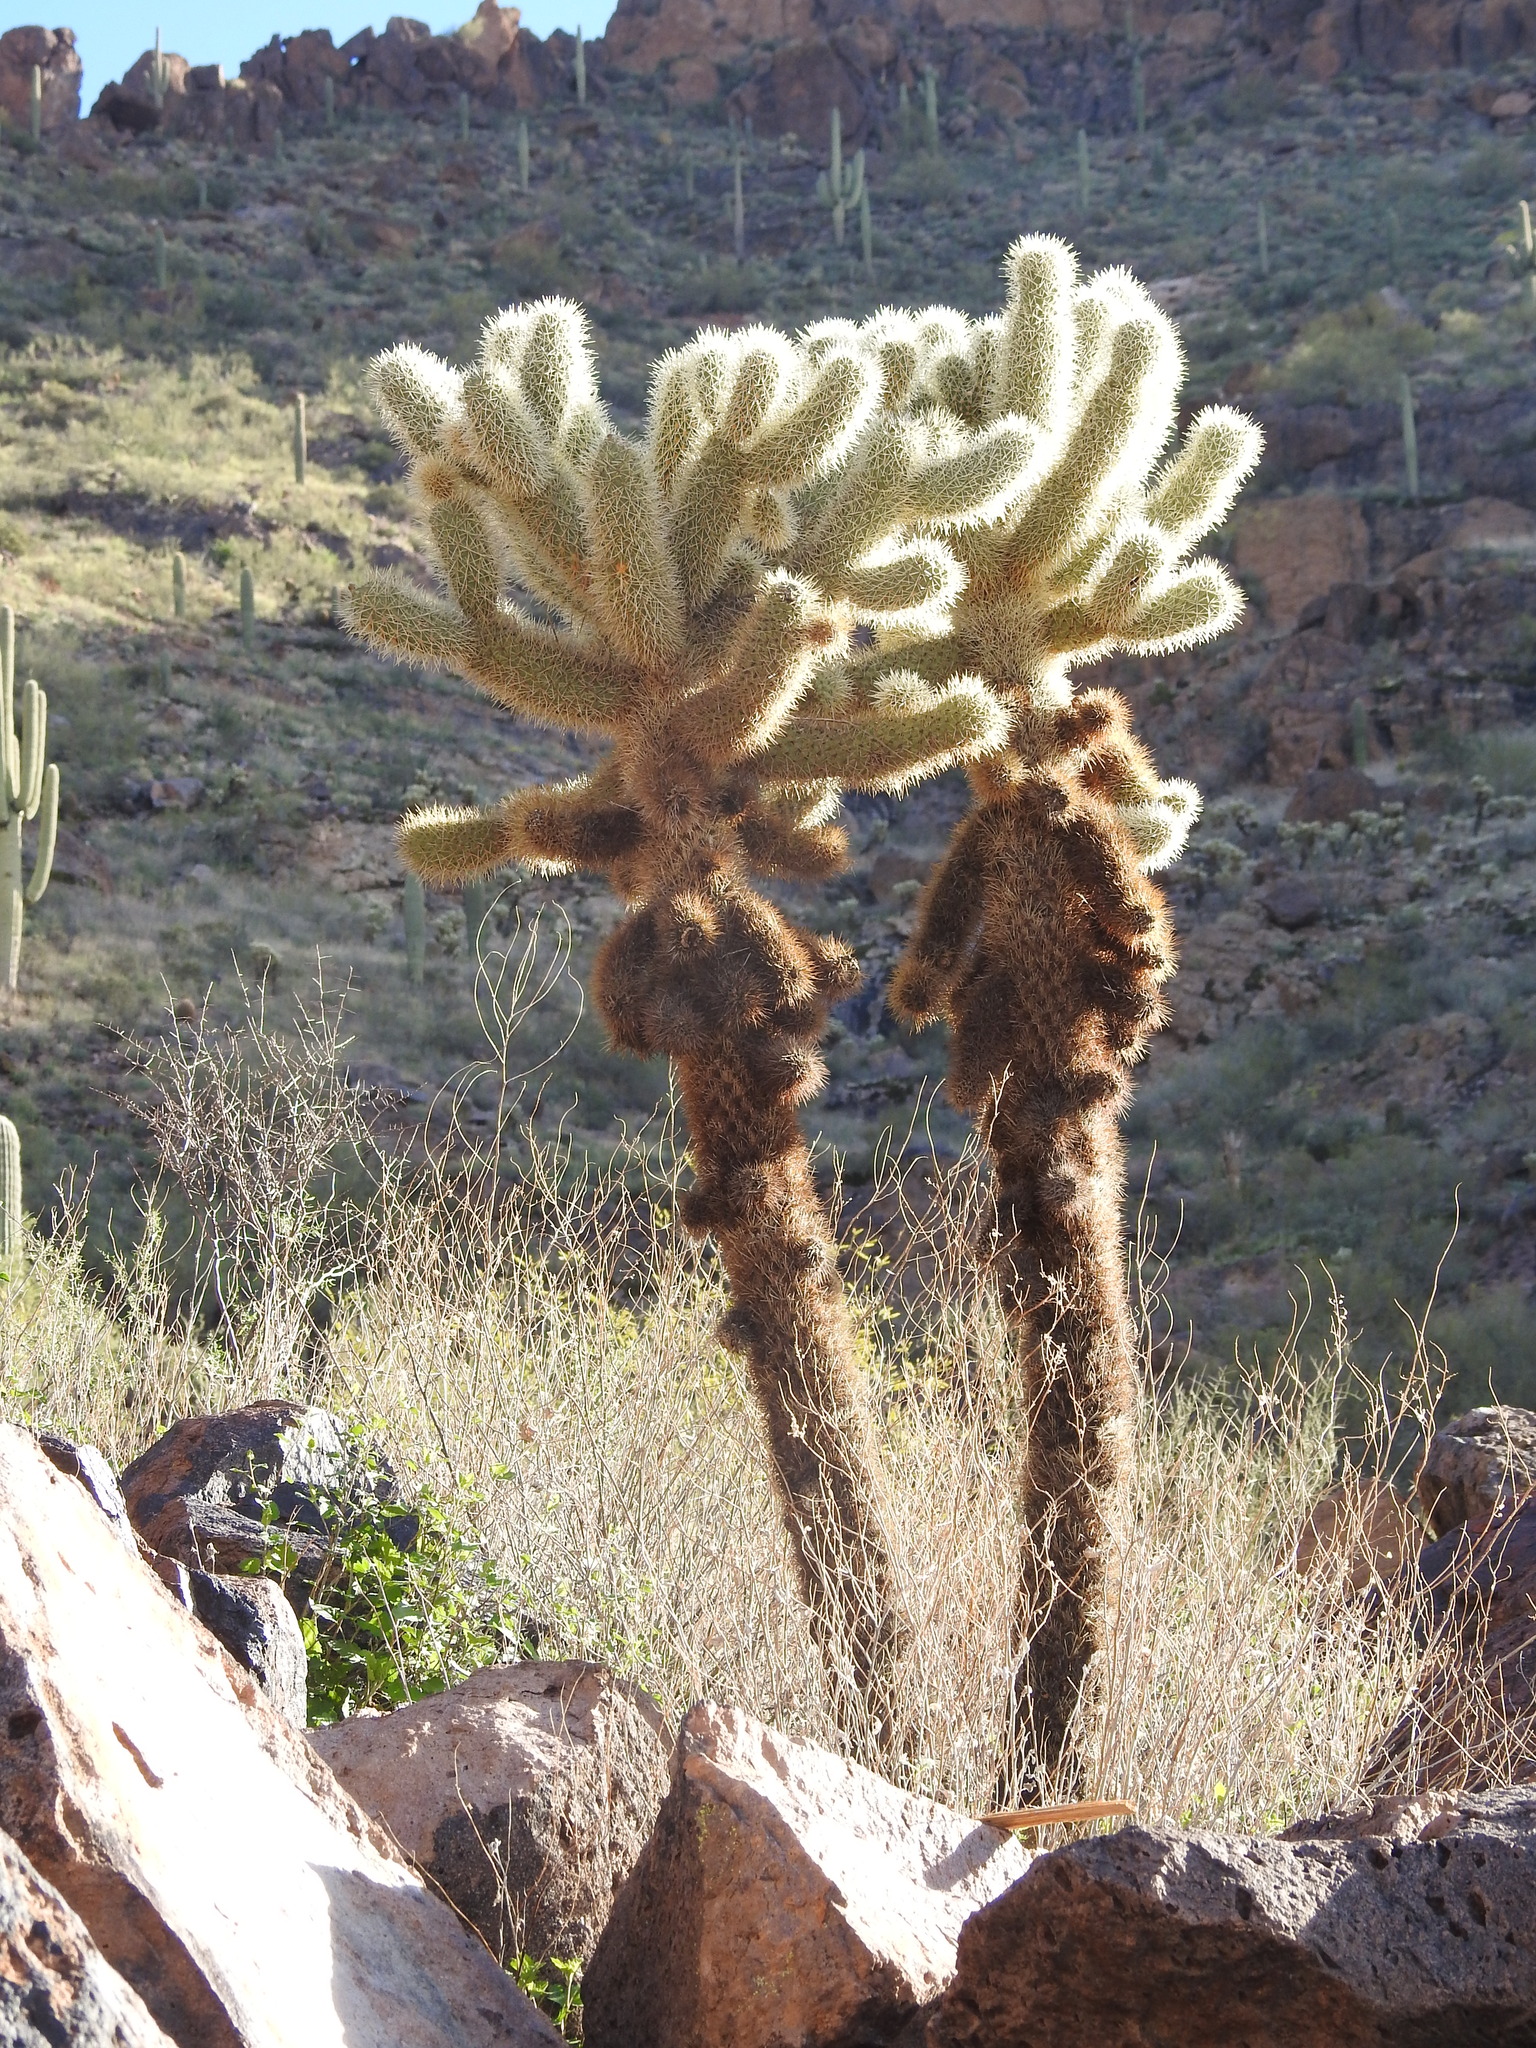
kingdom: Plantae
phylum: Tracheophyta
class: Magnoliopsida
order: Caryophyllales
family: Cactaceae
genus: Cylindropuntia
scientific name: Cylindropuntia fosbergii
